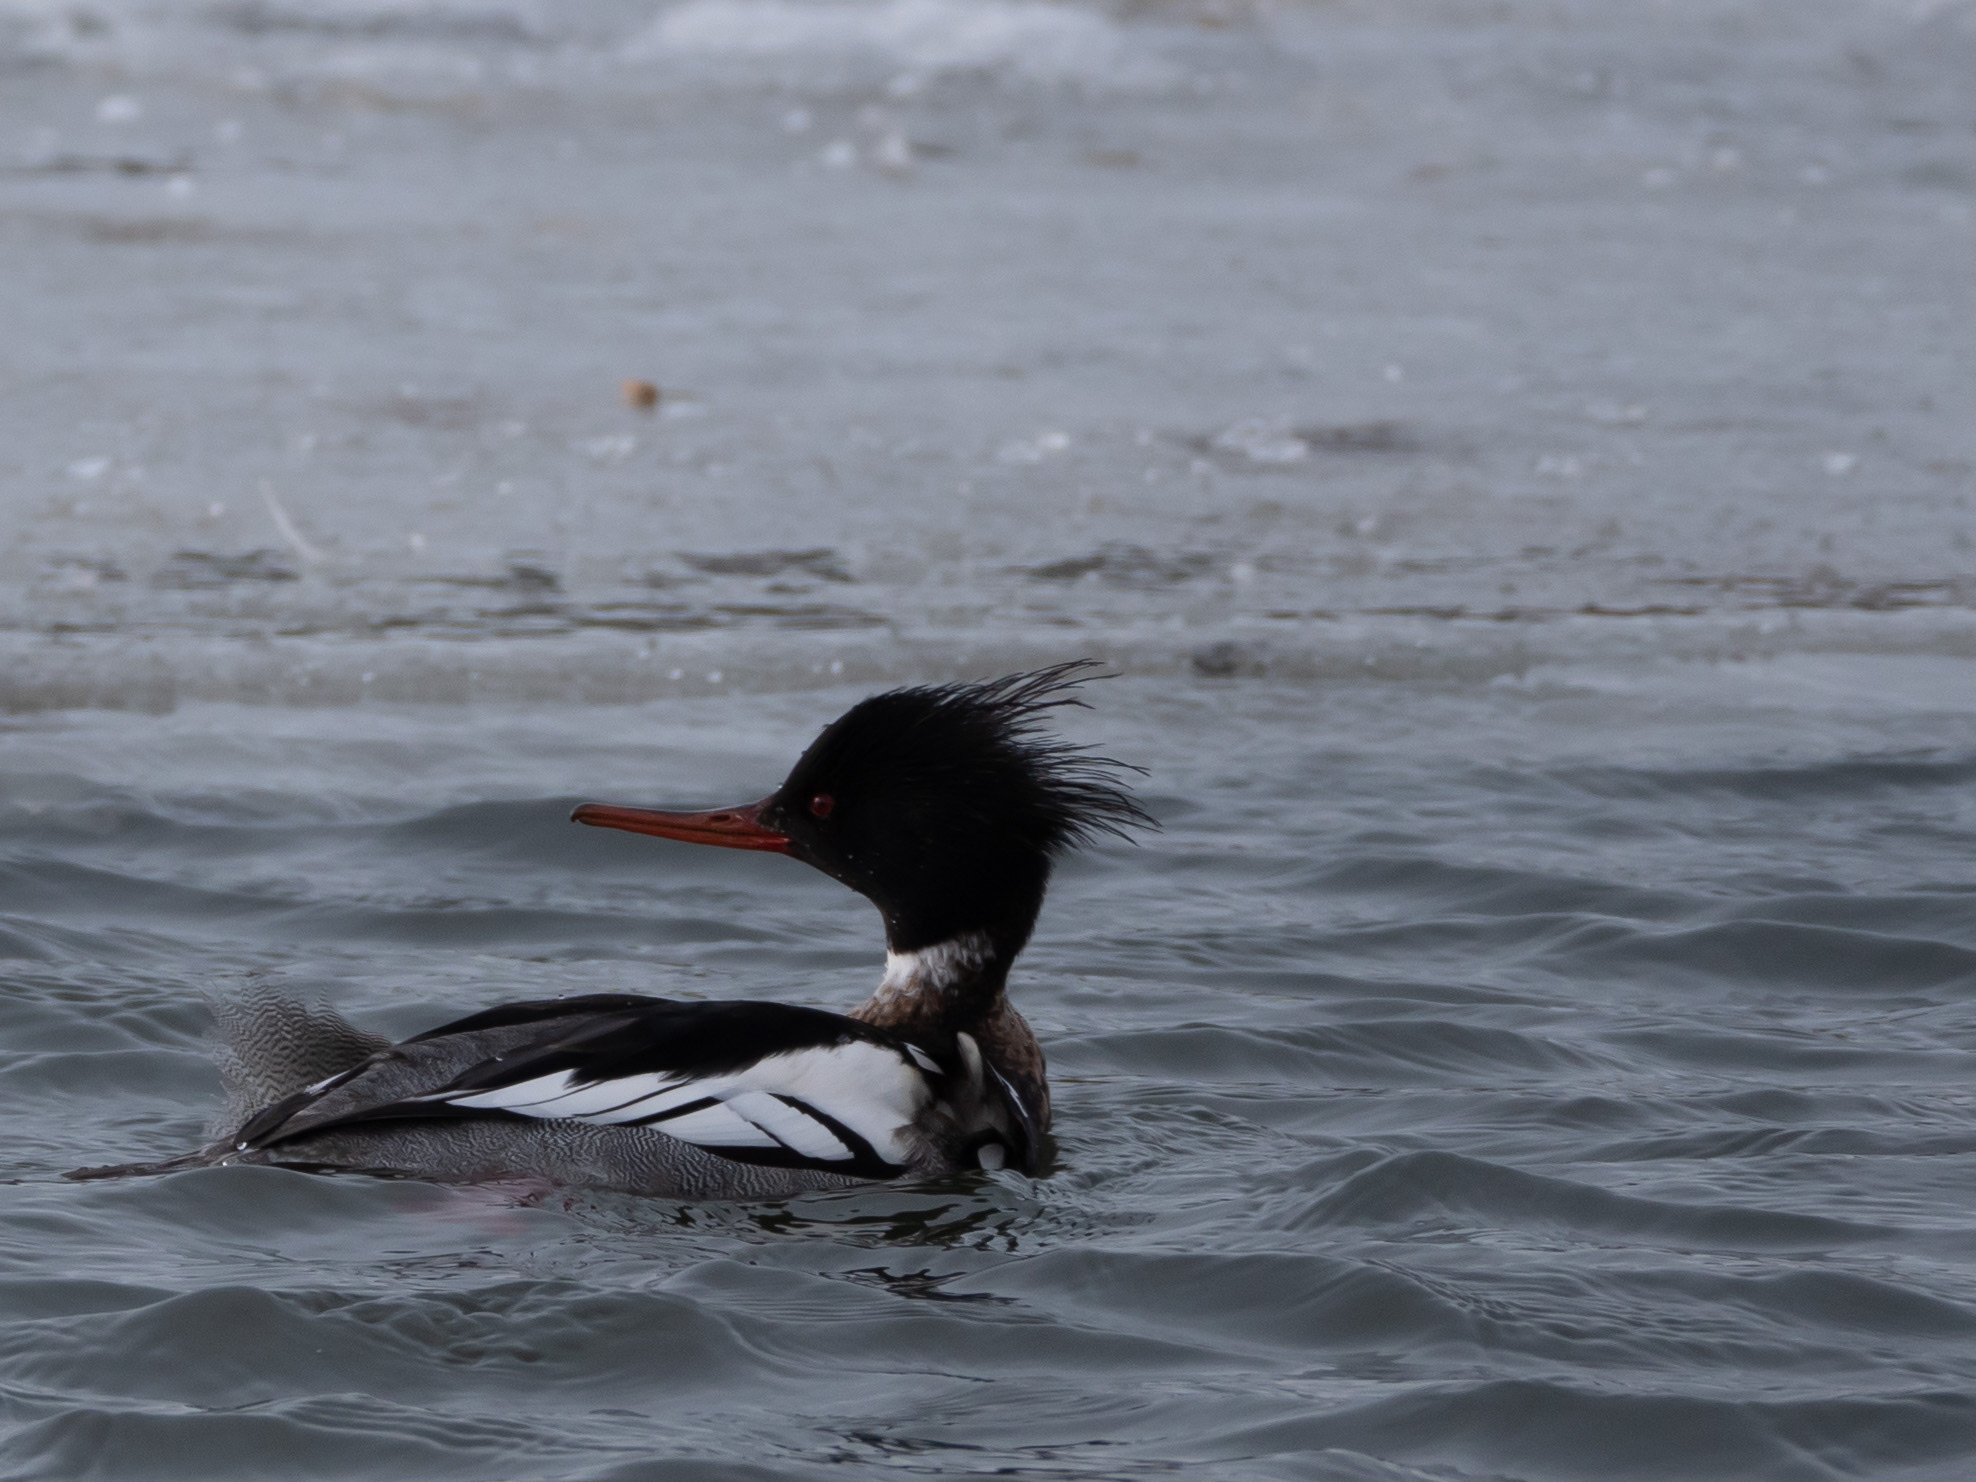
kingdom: Animalia
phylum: Chordata
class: Aves
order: Anseriformes
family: Anatidae
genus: Mergus
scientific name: Mergus serrator
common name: Red-breasted merganser
